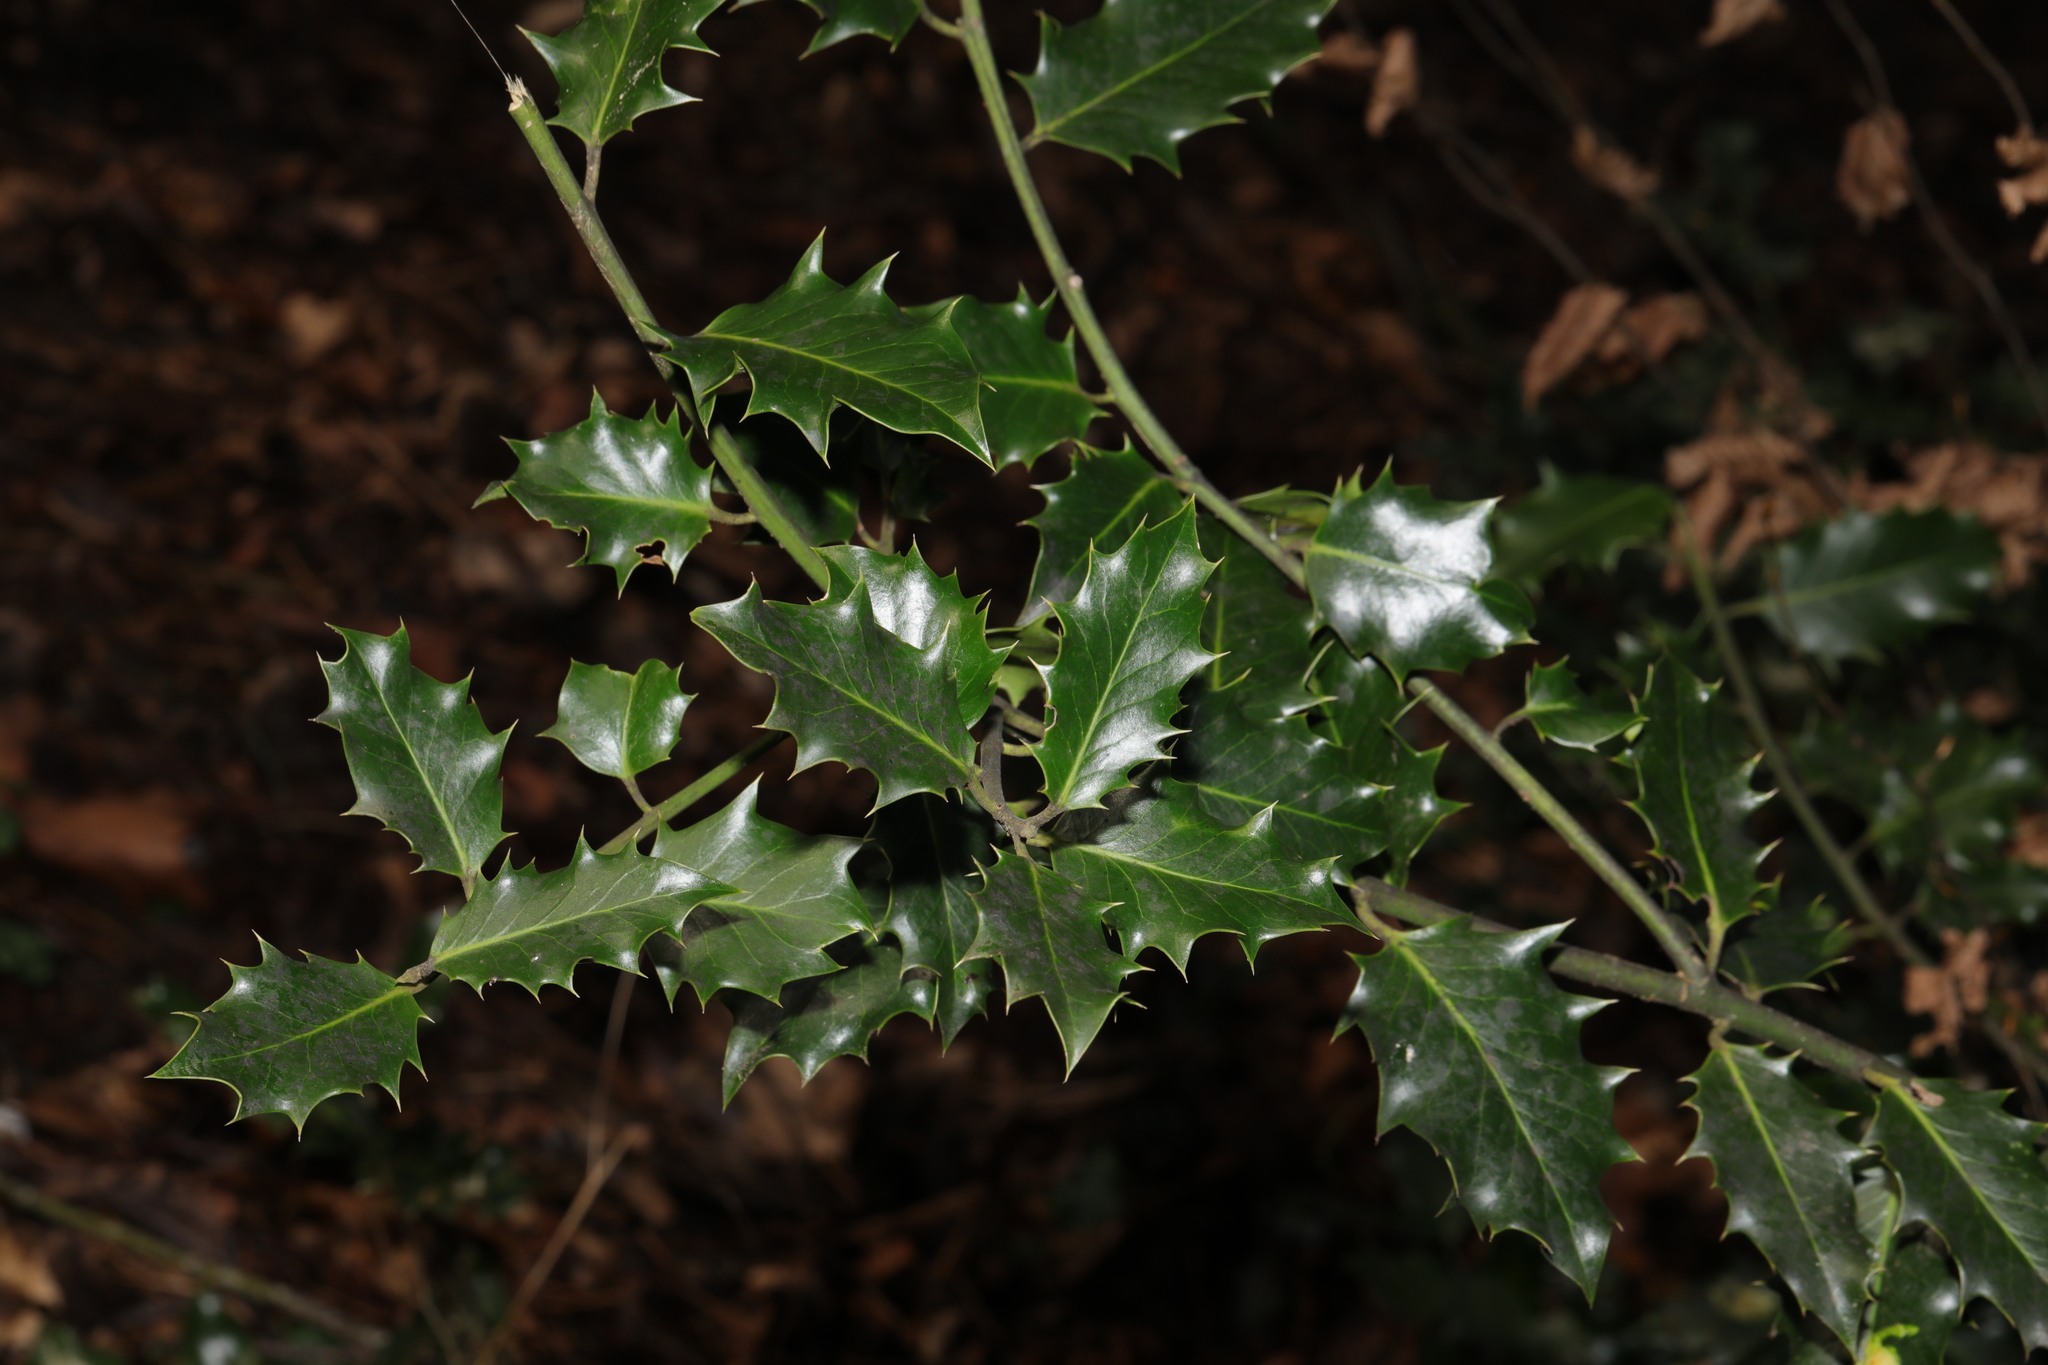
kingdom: Plantae
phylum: Tracheophyta
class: Magnoliopsida
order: Aquifoliales
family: Aquifoliaceae
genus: Ilex
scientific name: Ilex aquifolium
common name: English holly
